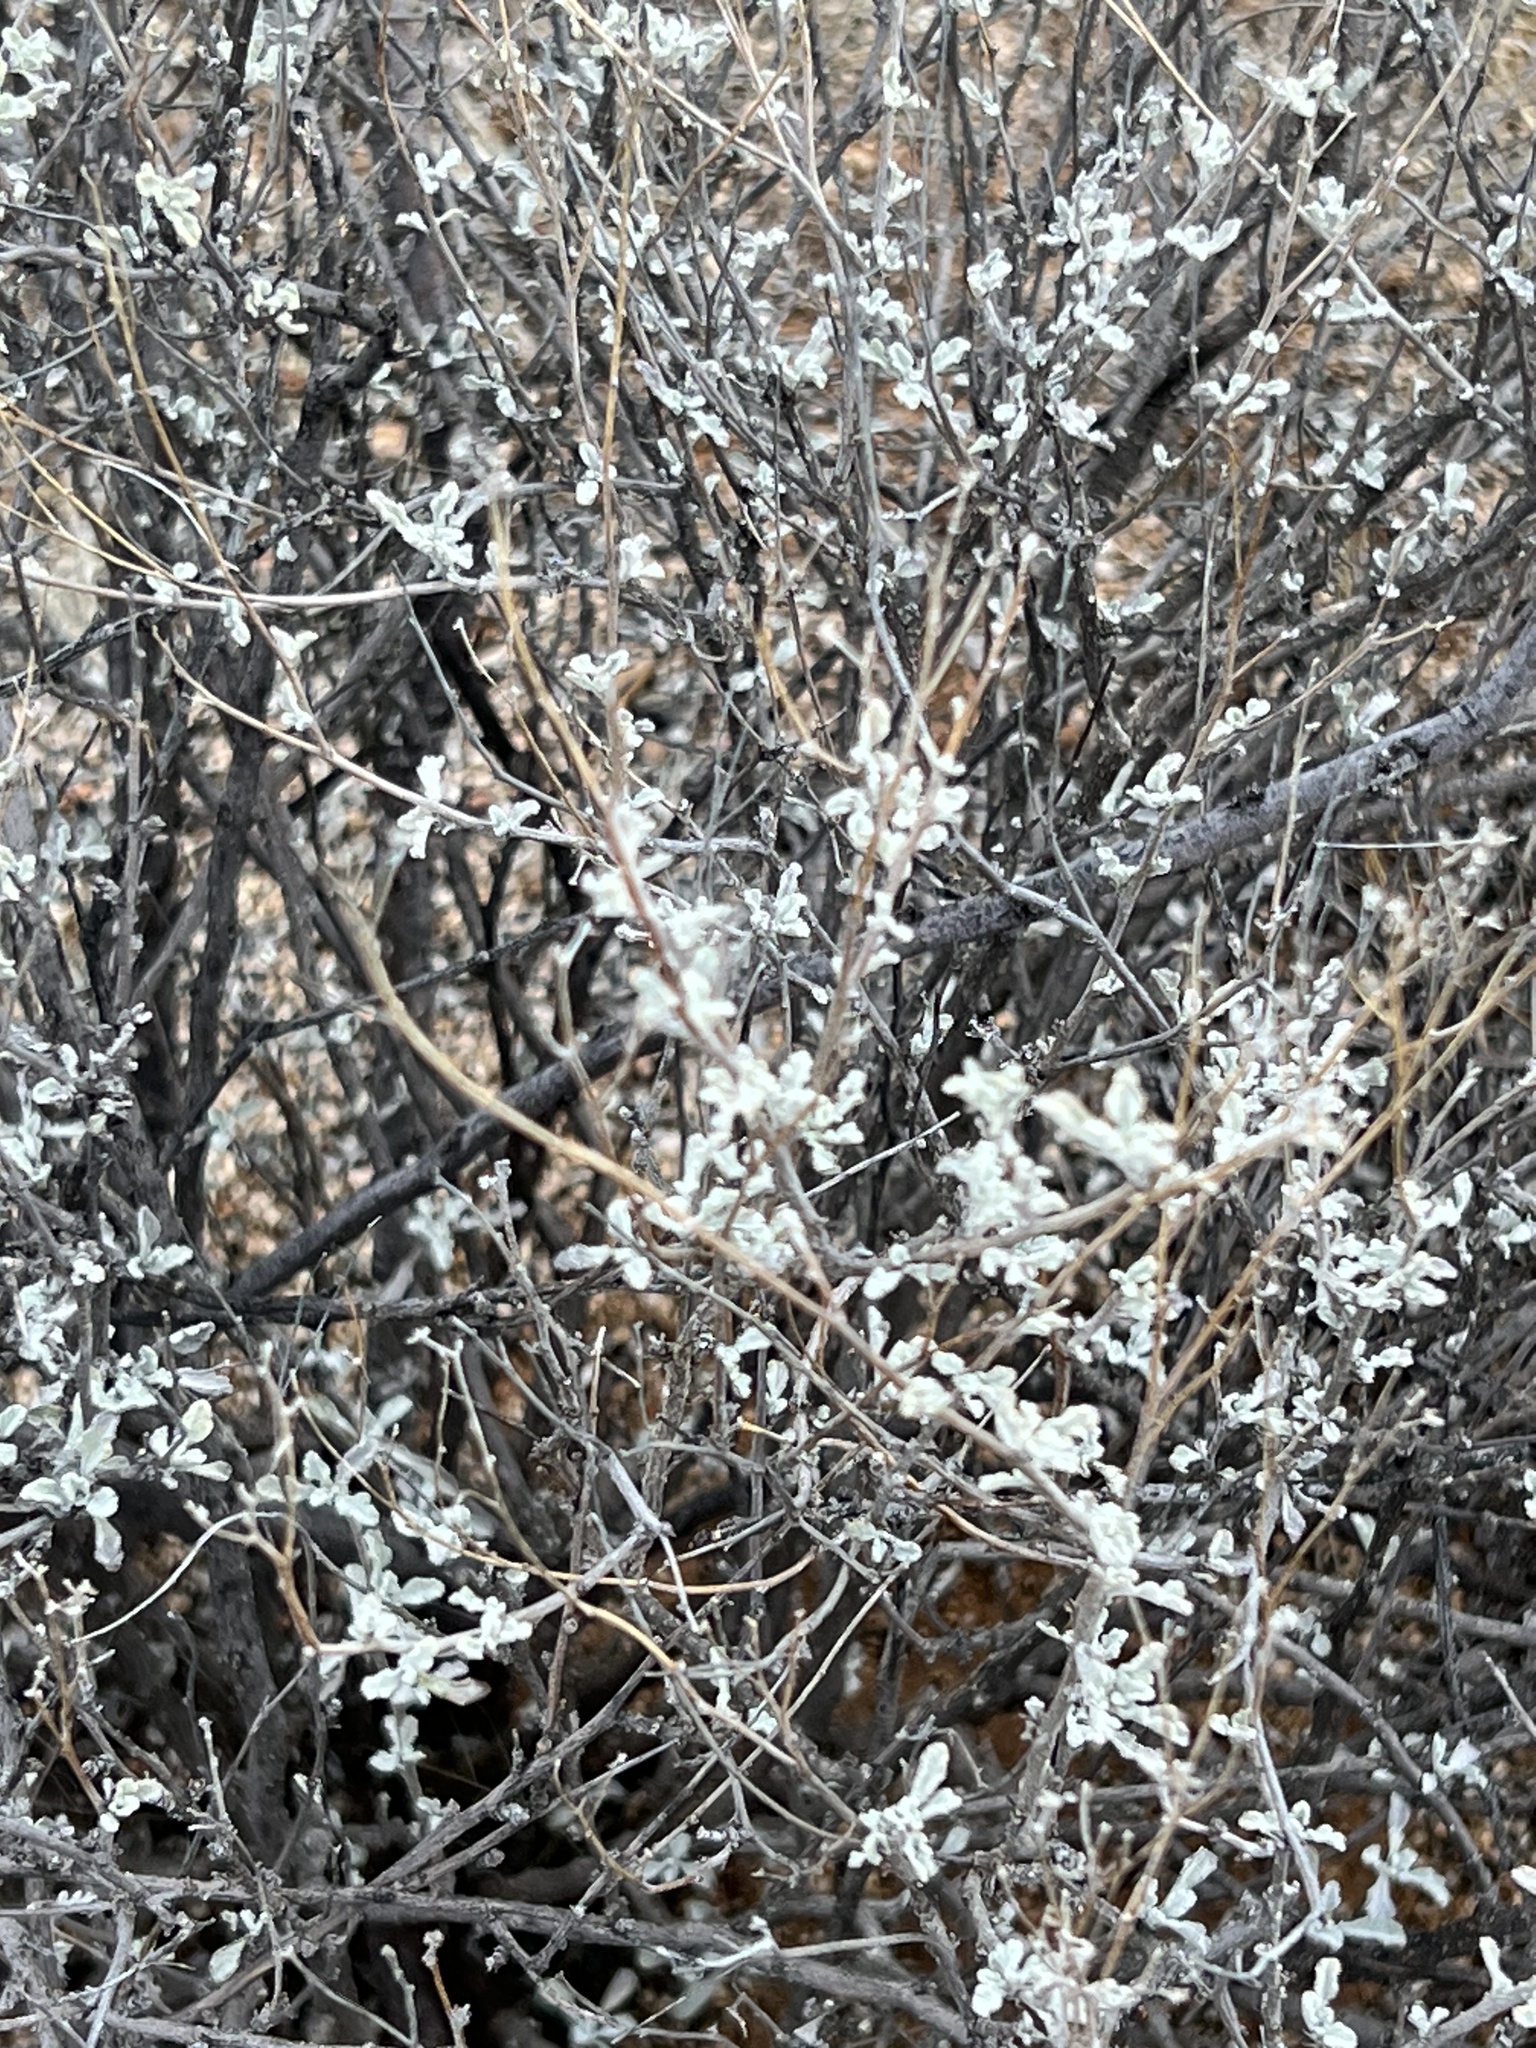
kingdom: Plantae
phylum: Tracheophyta
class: Magnoliopsida
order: Asterales
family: Asteraceae
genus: Parthenium
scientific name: Parthenium incanum
